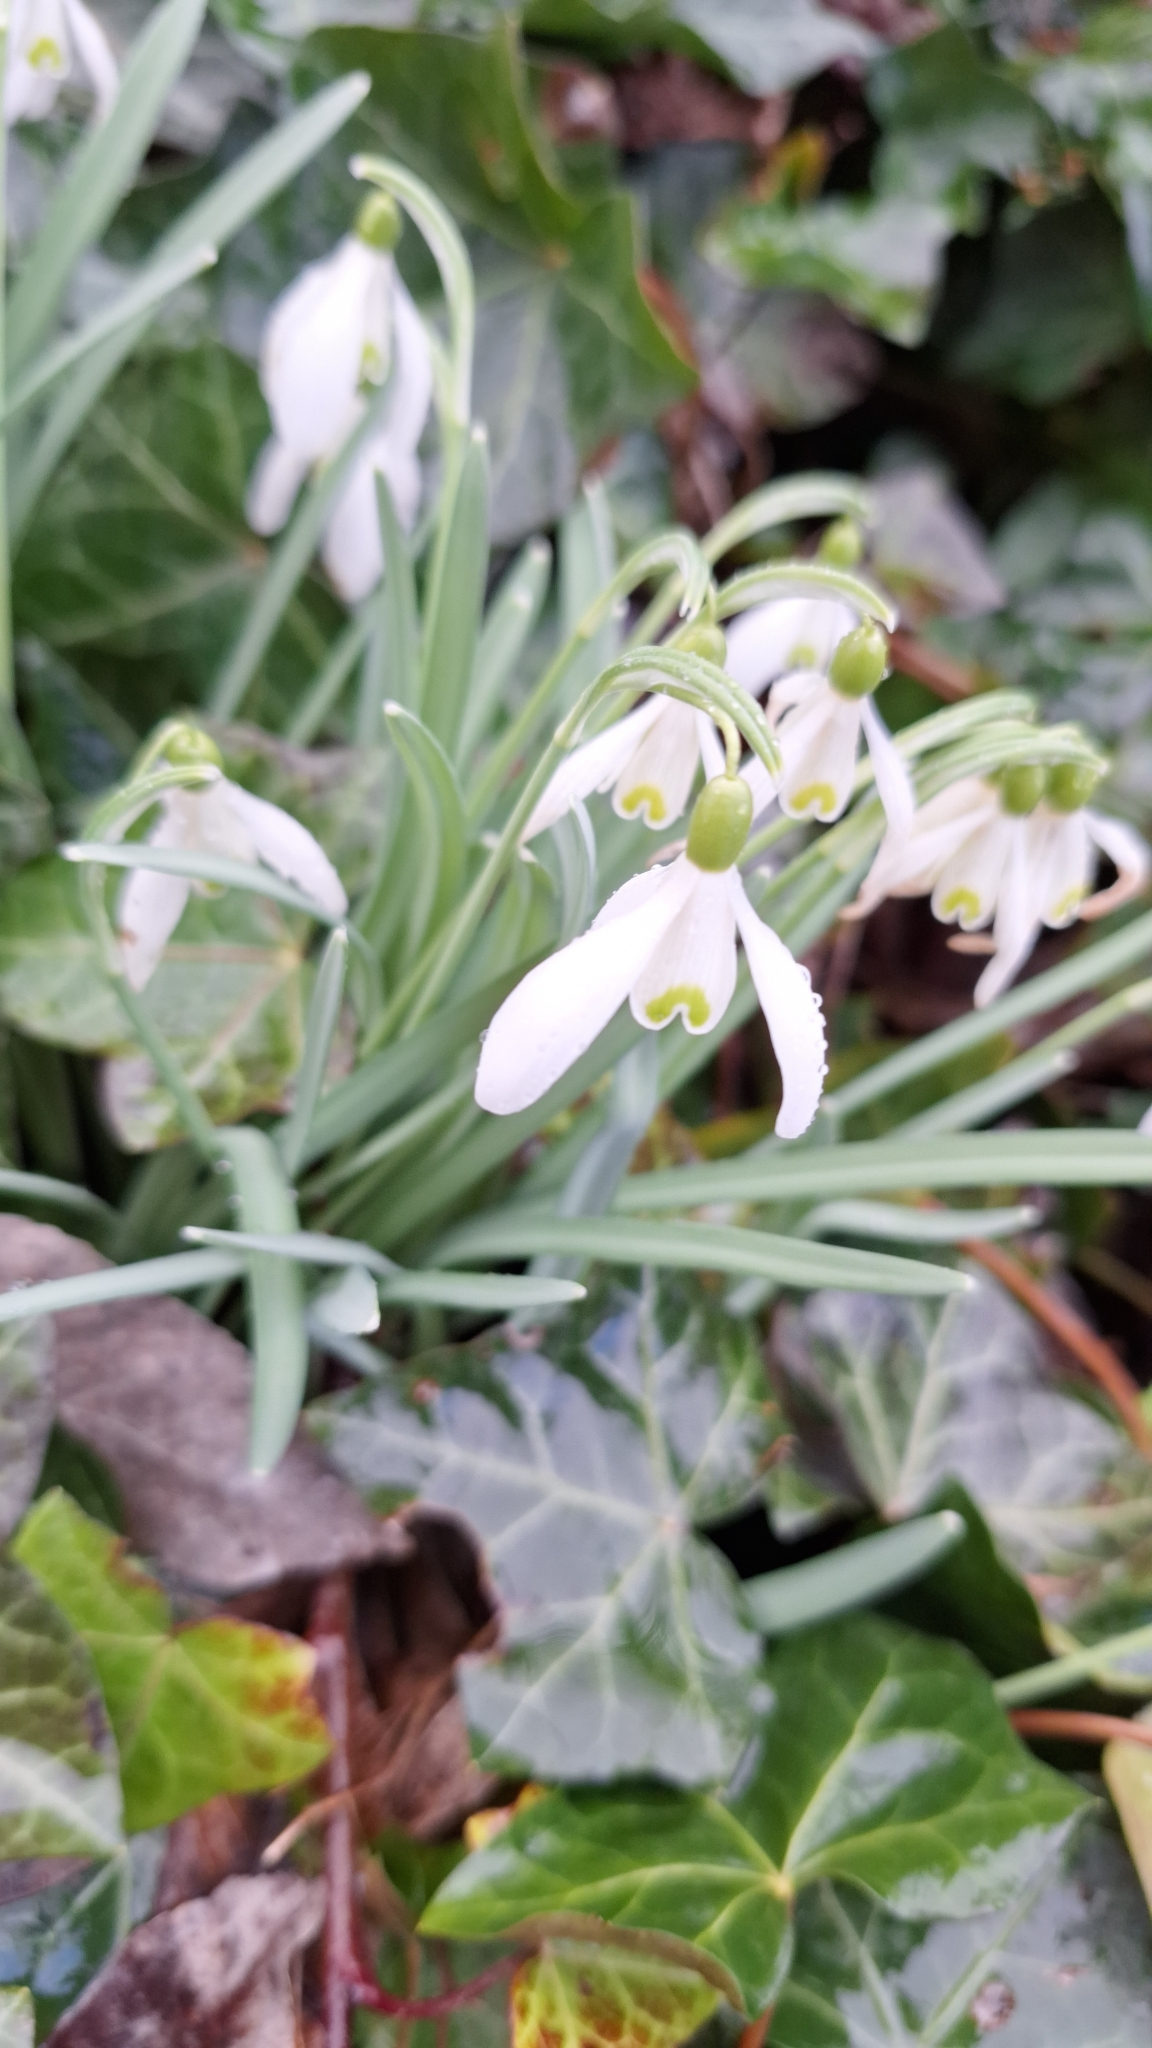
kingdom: Plantae
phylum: Tracheophyta
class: Liliopsida
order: Asparagales
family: Amaryllidaceae
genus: Galanthus
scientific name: Galanthus nivalis
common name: Snowdrop
